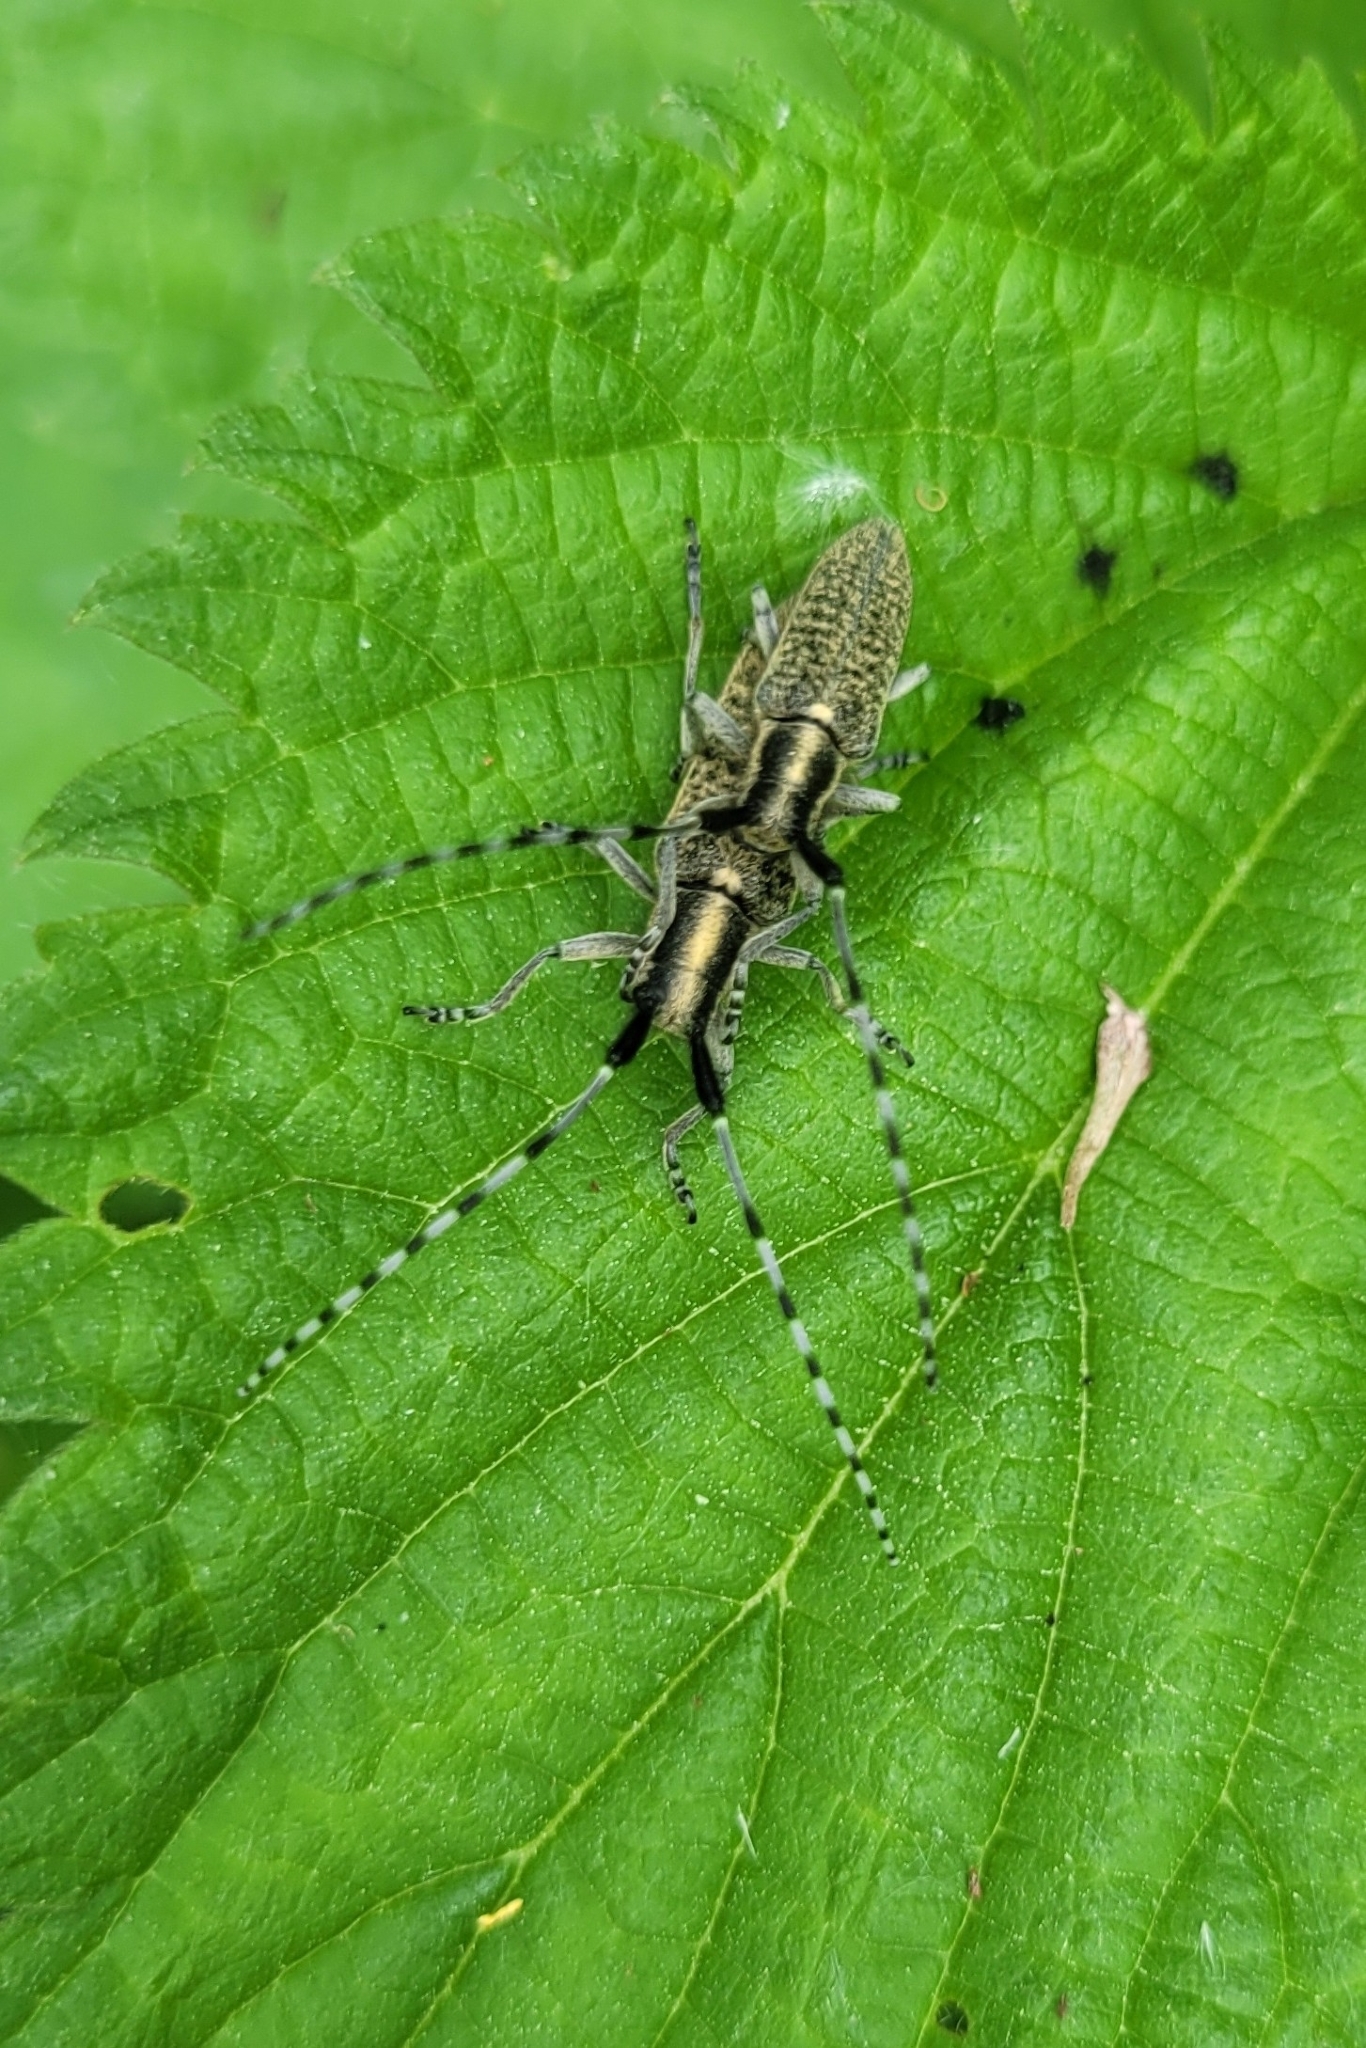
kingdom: Animalia
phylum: Arthropoda
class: Insecta
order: Coleoptera
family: Cerambycidae
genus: Agapanthia
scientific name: Agapanthia villosoviridescens
